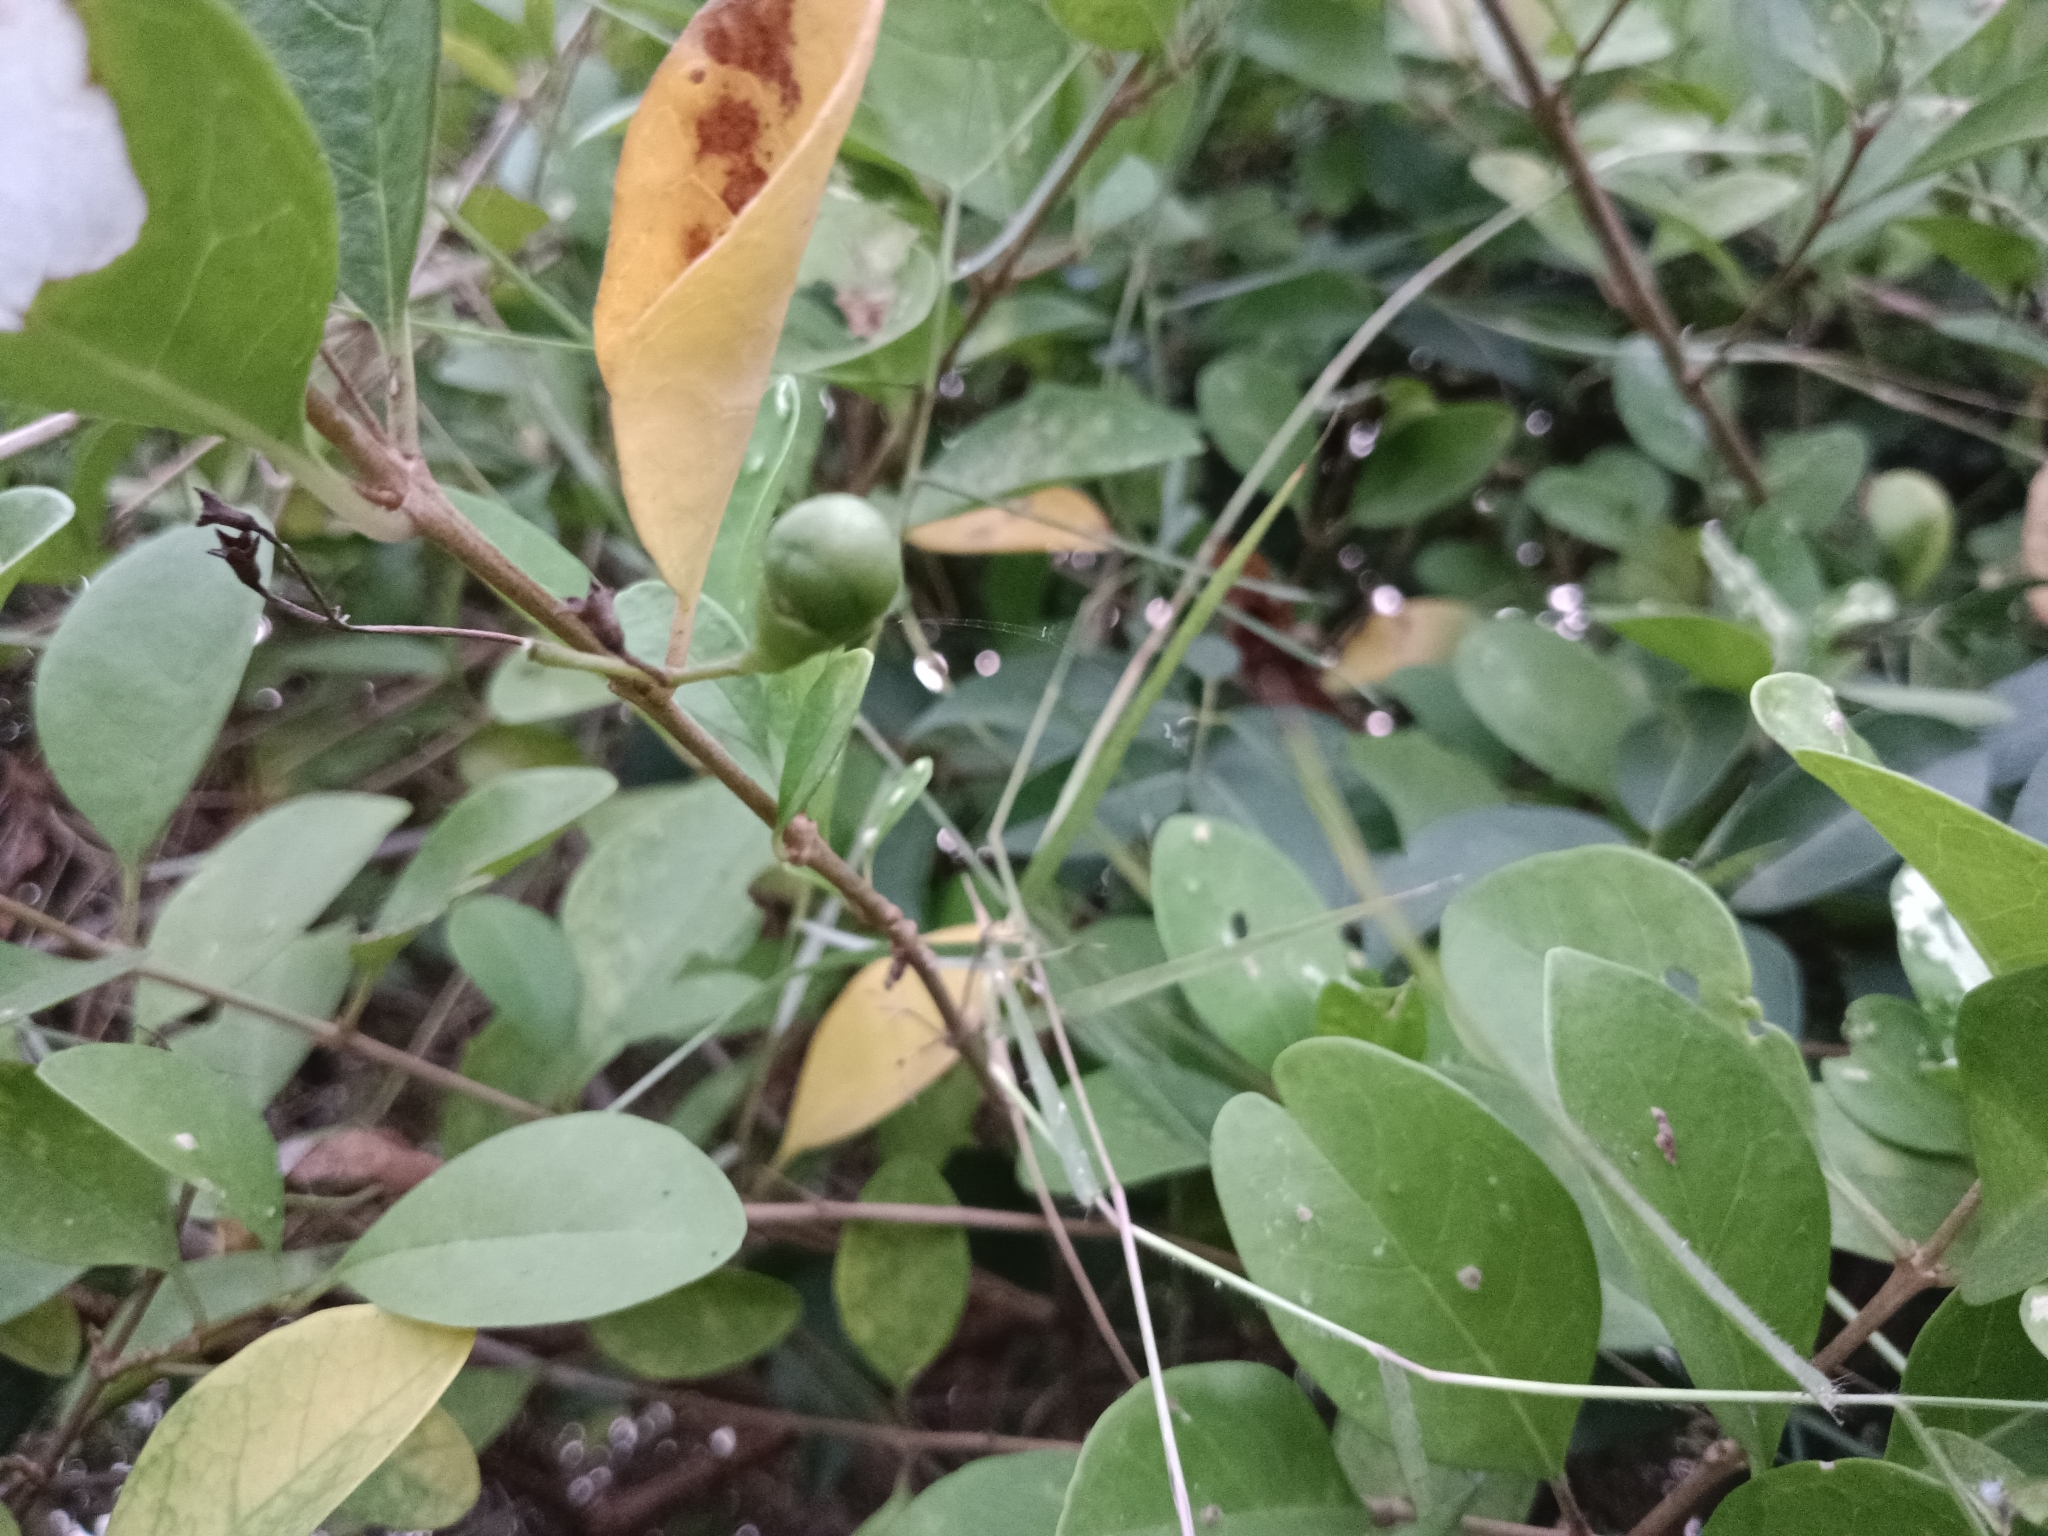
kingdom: Plantae
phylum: Tracheophyta
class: Magnoliopsida
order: Lamiales
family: Lamiaceae
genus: Volkameria
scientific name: Volkameria inermis
